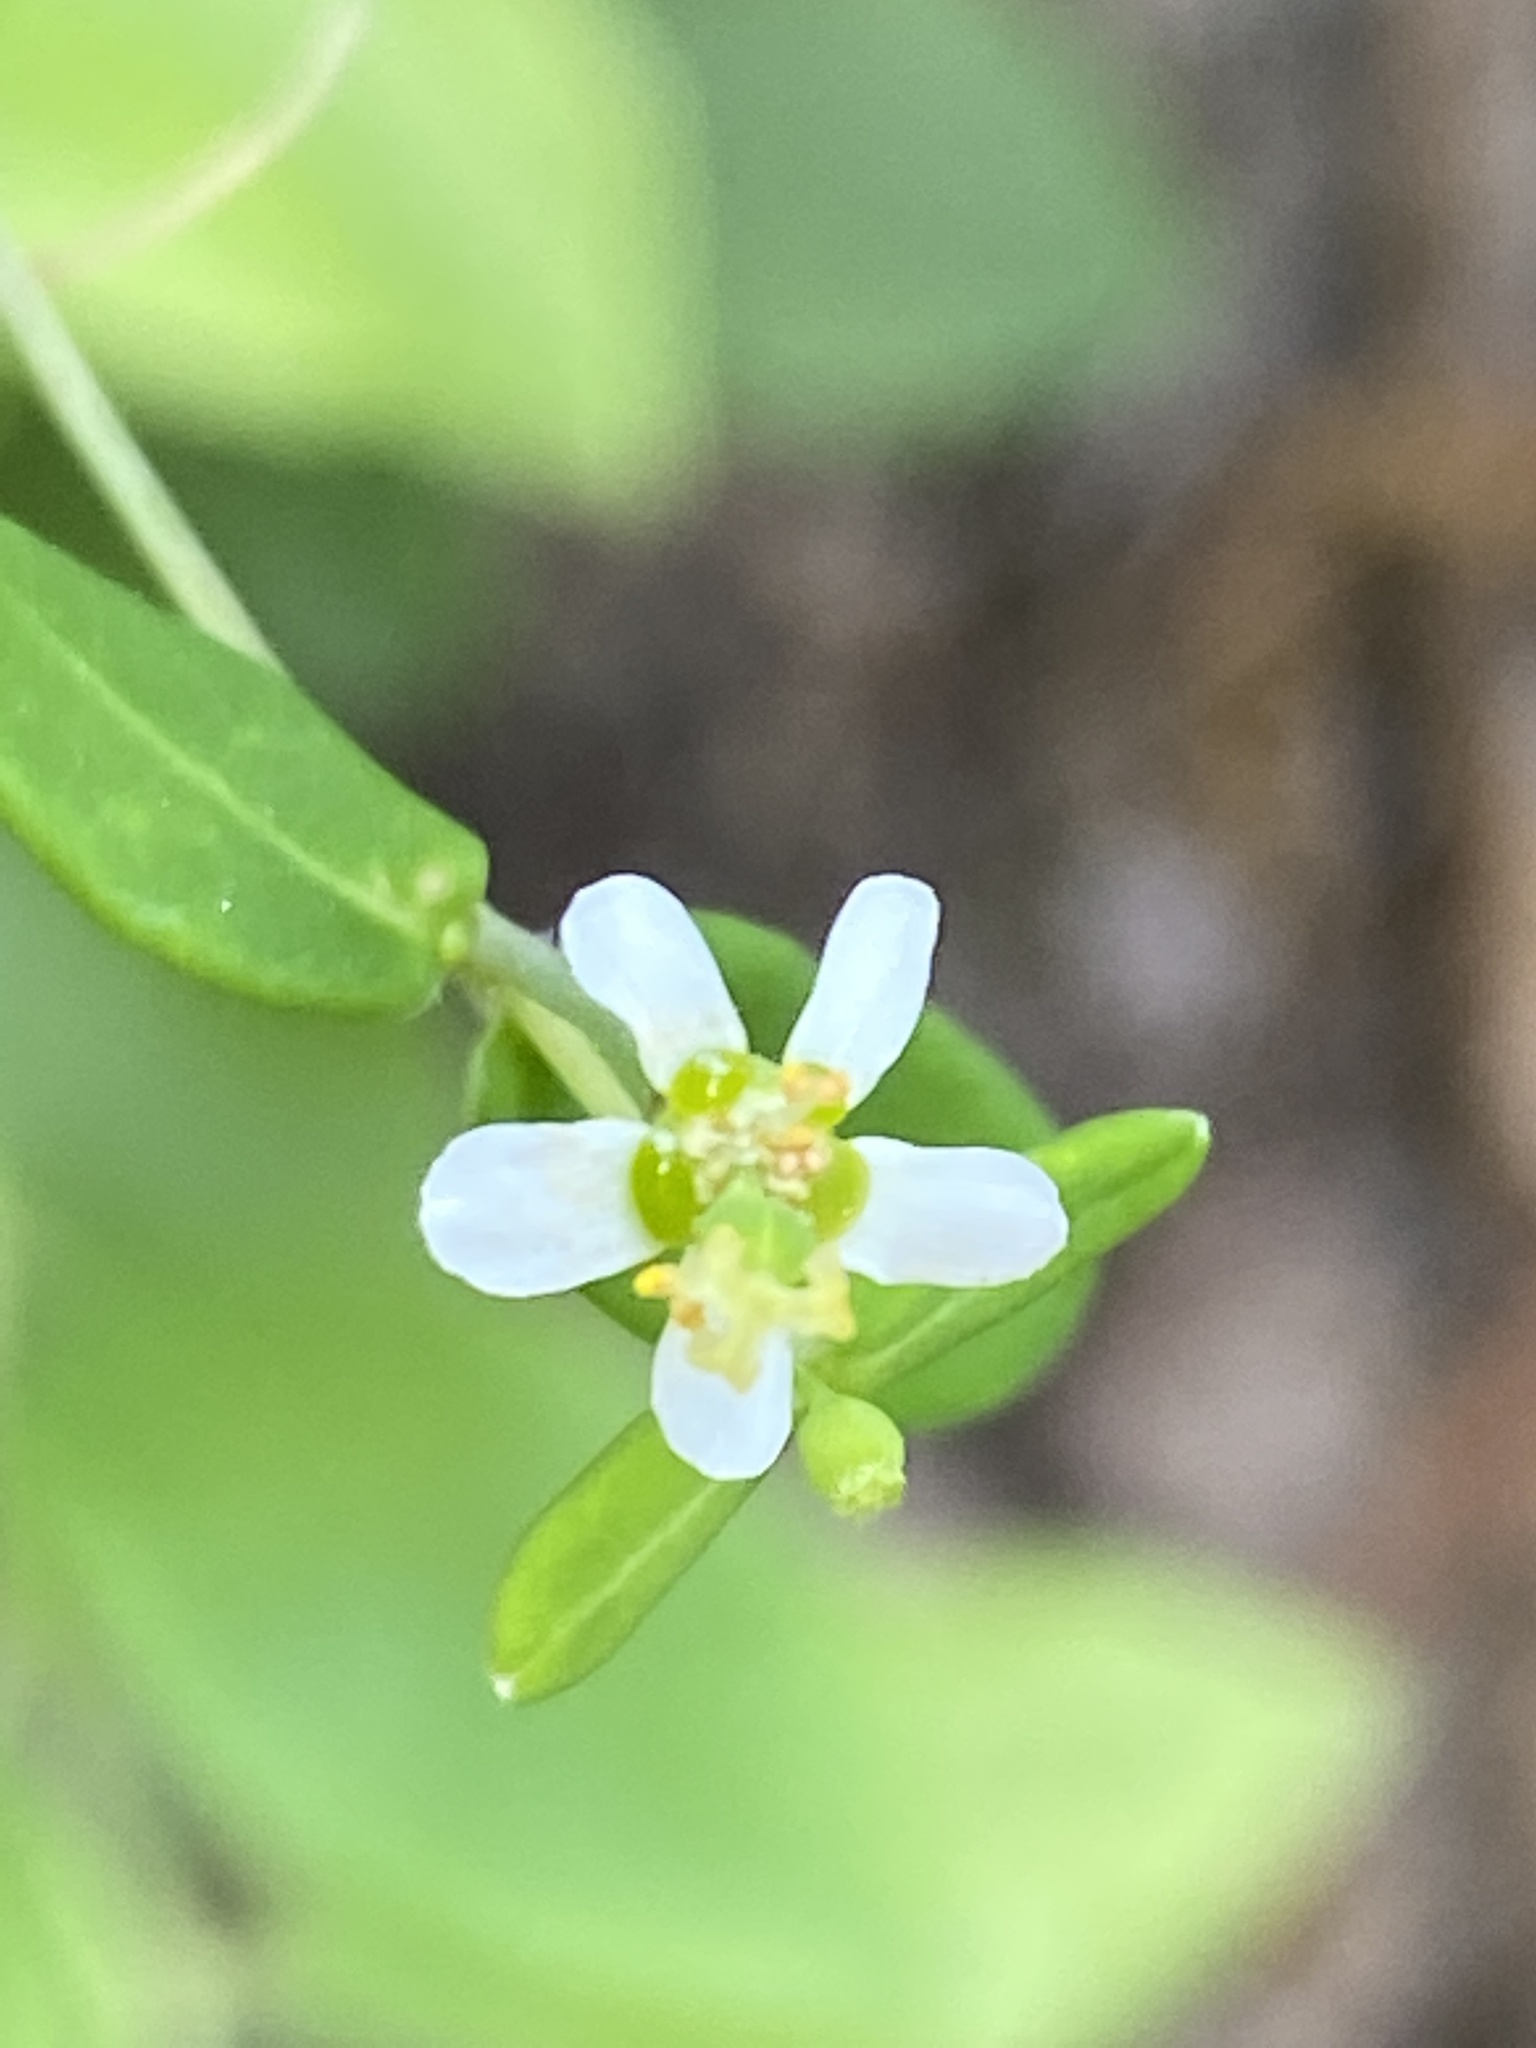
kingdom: Plantae
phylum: Tracheophyta
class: Magnoliopsida
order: Malpighiales
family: Euphorbiaceae
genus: Euphorbia
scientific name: Euphorbia pubentissima
